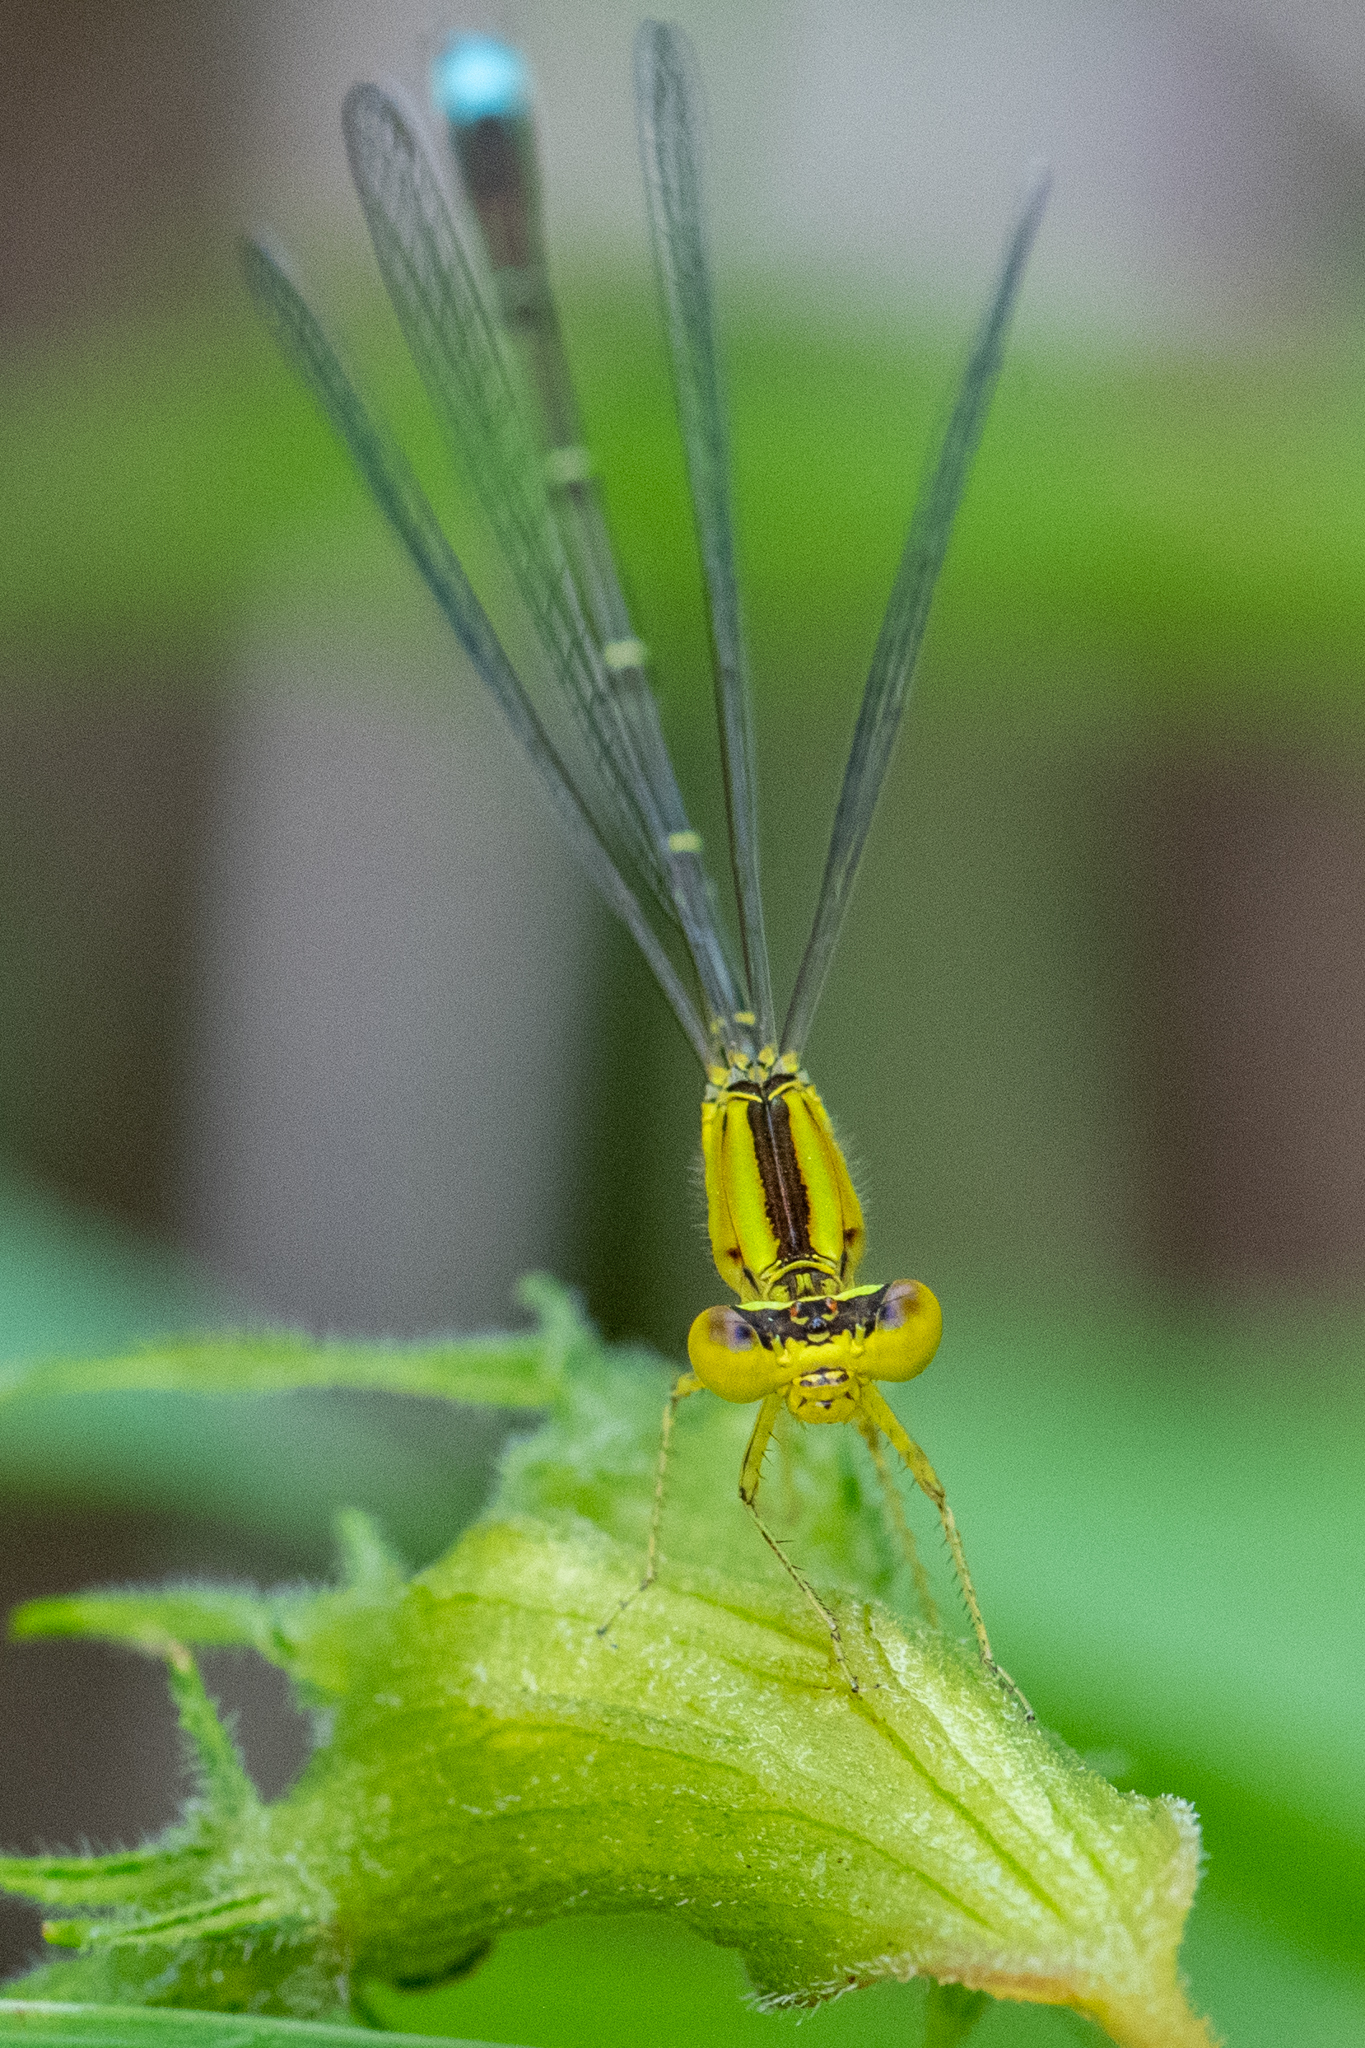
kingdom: Animalia
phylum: Arthropoda
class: Insecta
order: Odonata
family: Coenagrionidae
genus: Enallagma
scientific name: Enallagma vesperum
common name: Vesper bluet
